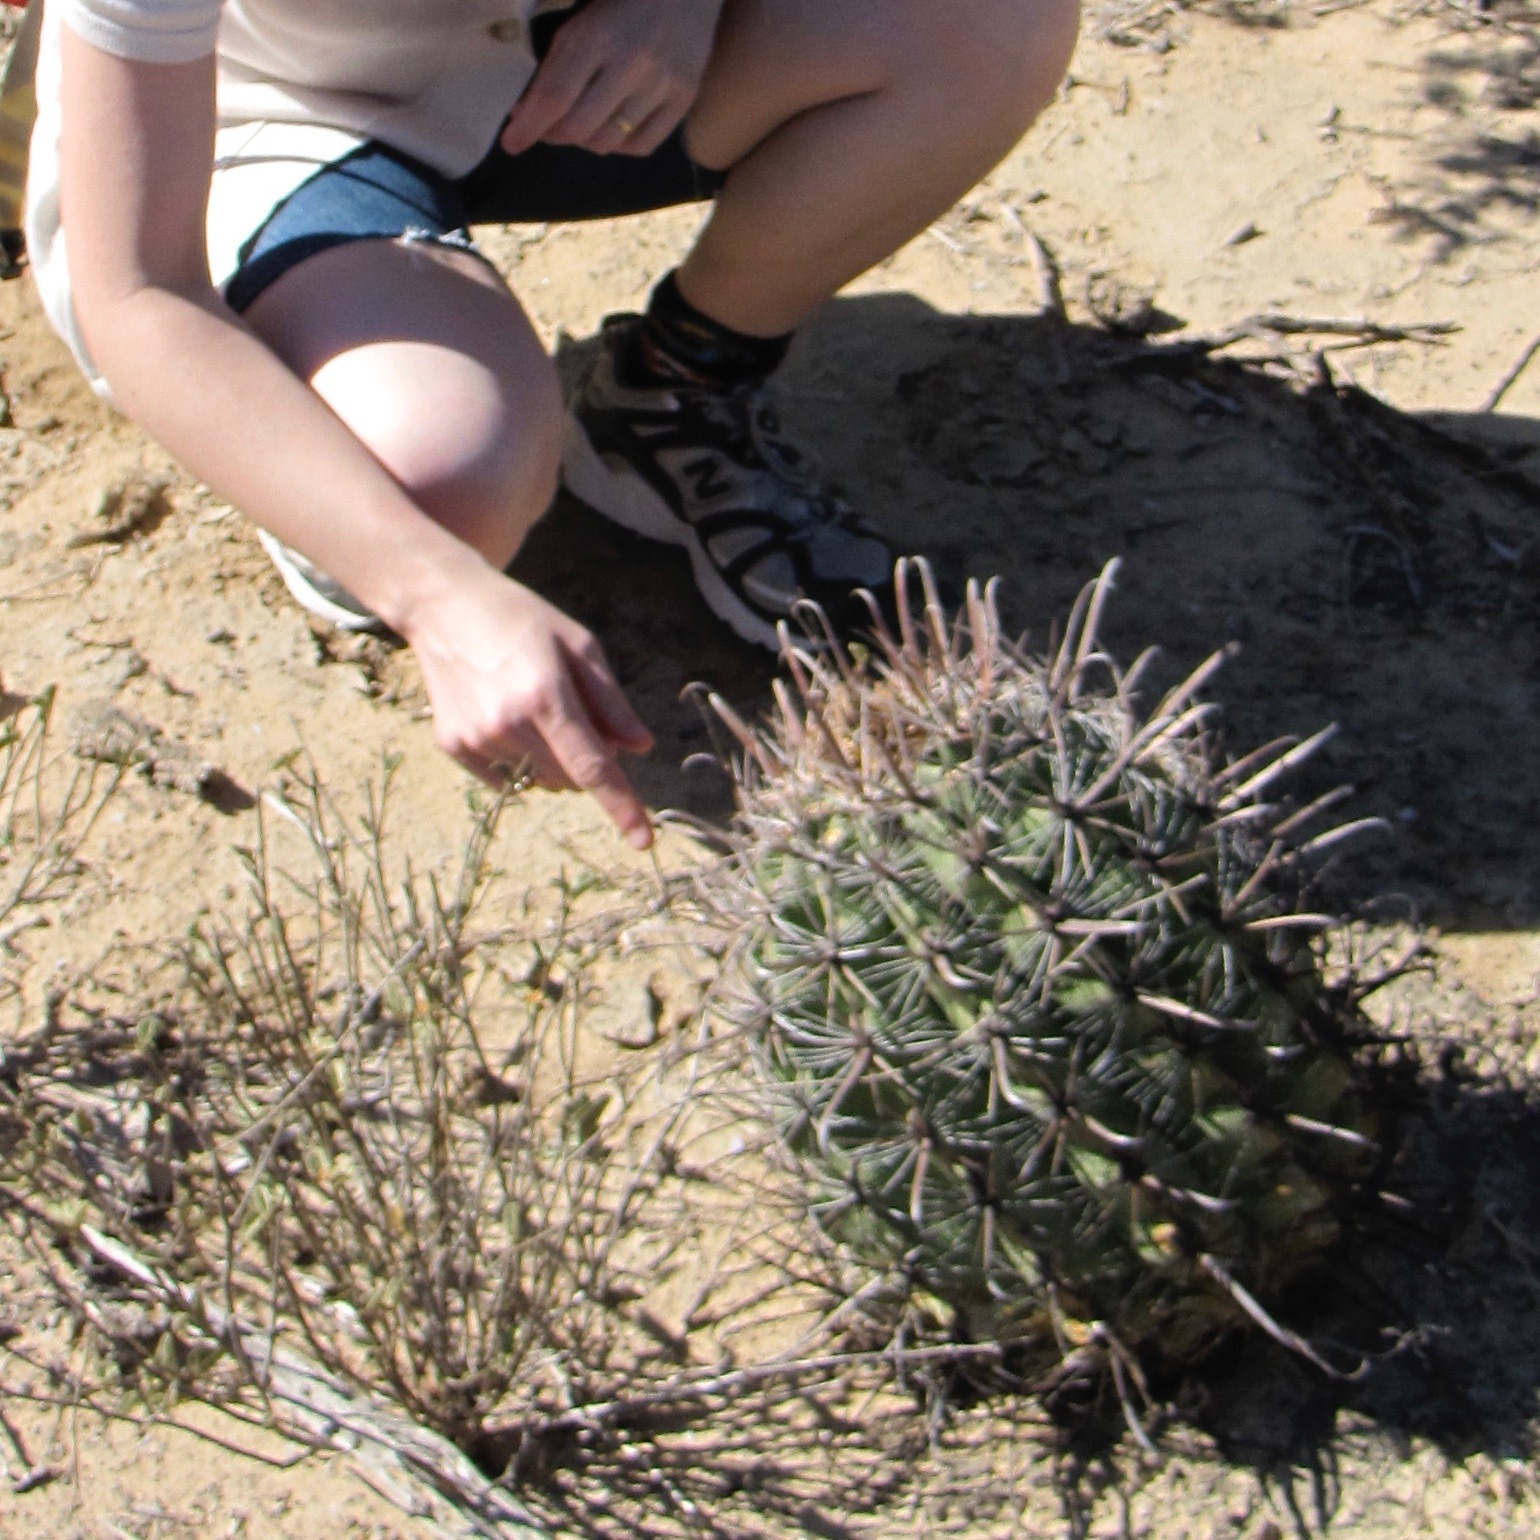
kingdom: Plantae
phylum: Tracheophyta
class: Magnoliopsida
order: Caryophyllales
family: Cactaceae
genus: Ferocactus
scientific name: Ferocactus townsendianus
